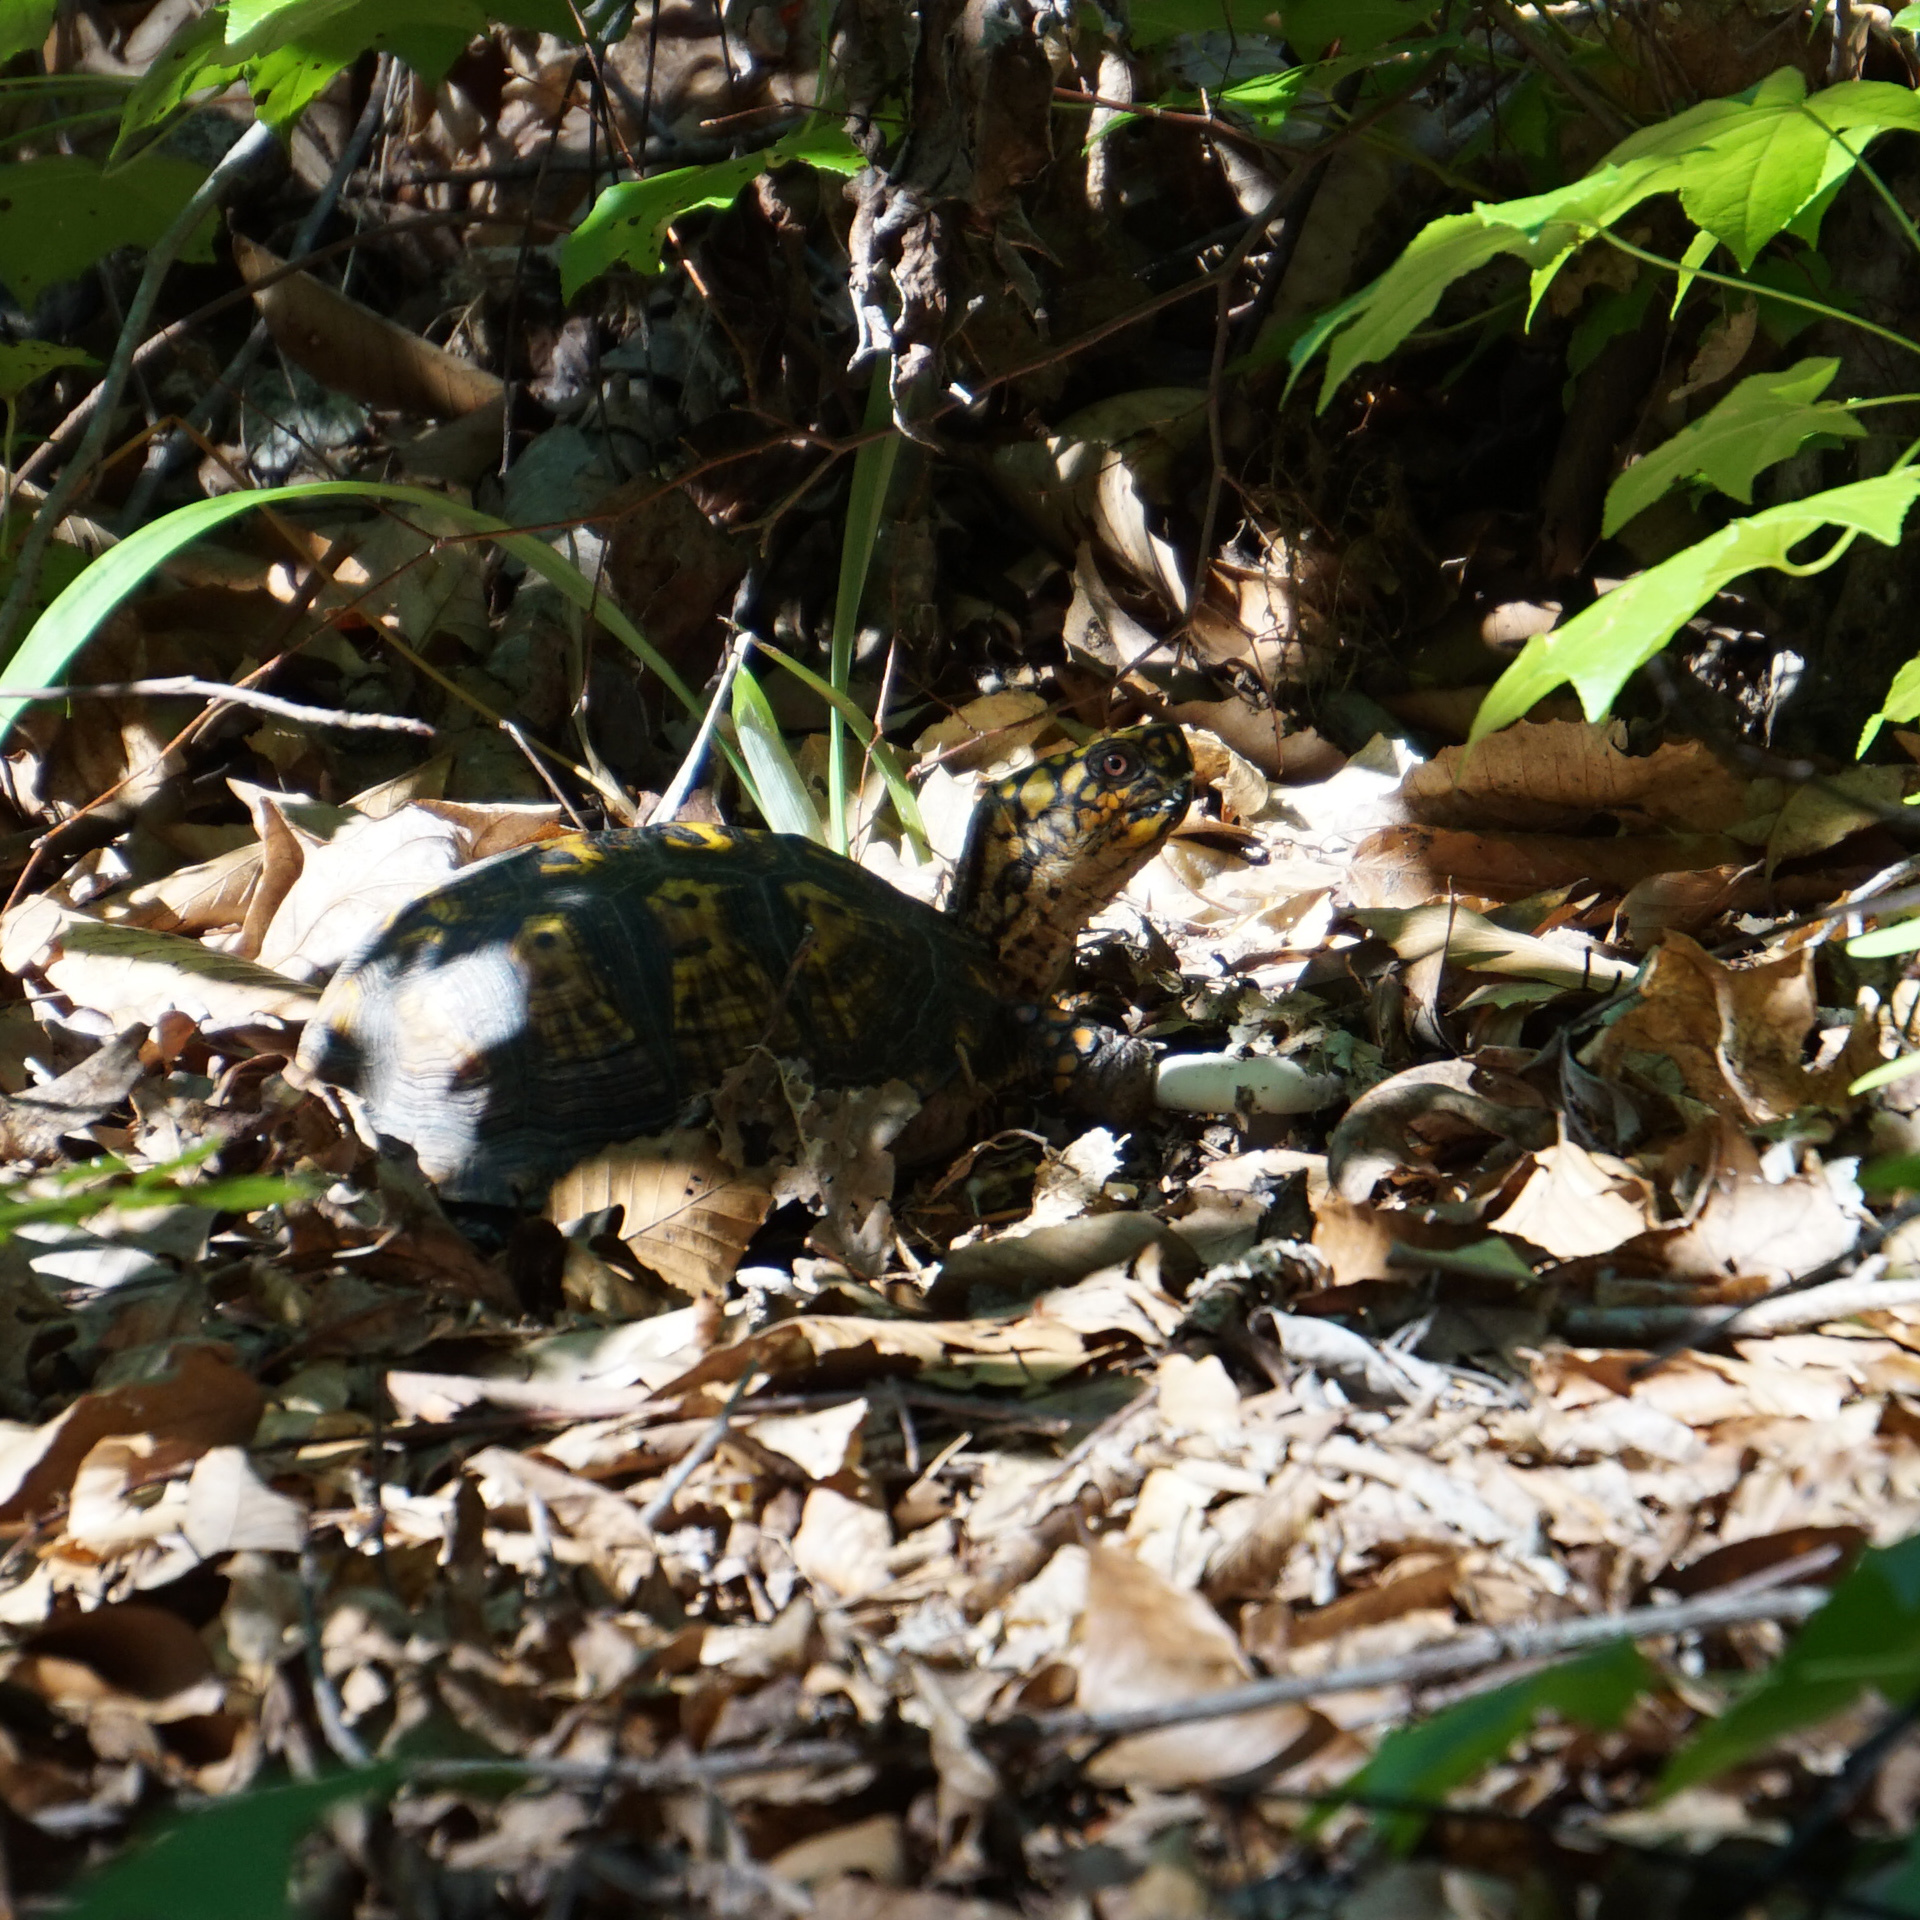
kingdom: Animalia
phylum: Chordata
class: Testudines
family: Emydidae
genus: Terrapene
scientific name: Terrapene carolina
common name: Common box turtle
